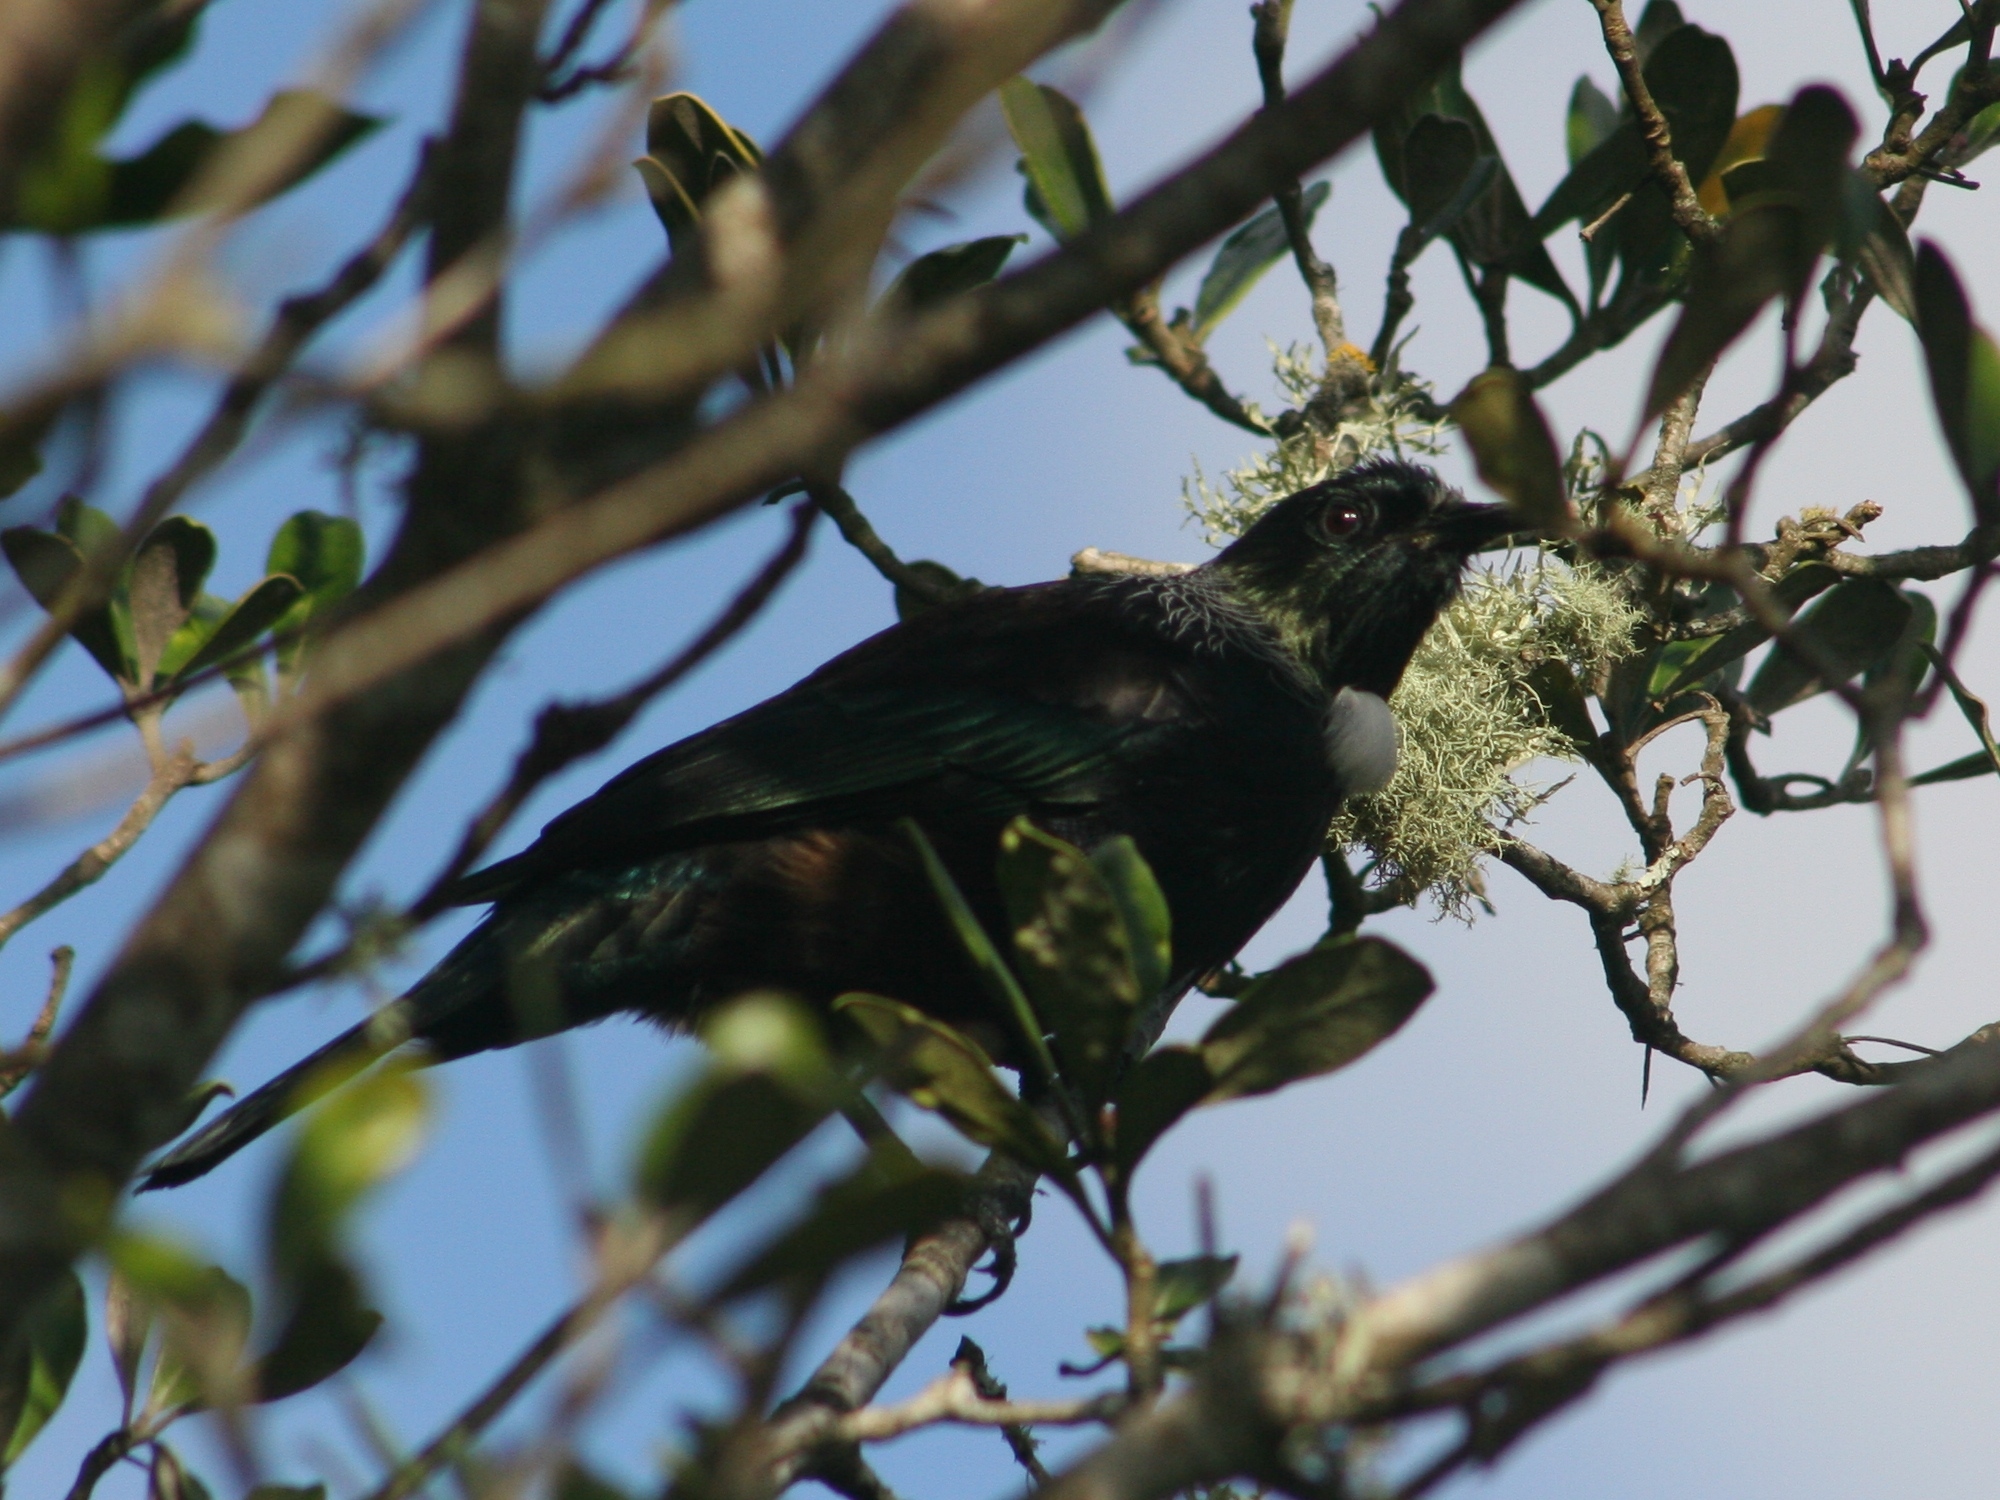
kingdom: Animalia
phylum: Chordata
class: Aves
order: Passeriformes
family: Meliphagidae
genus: Prosthemadera
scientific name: Prosthemadera novaeseelandiae
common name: Tui
